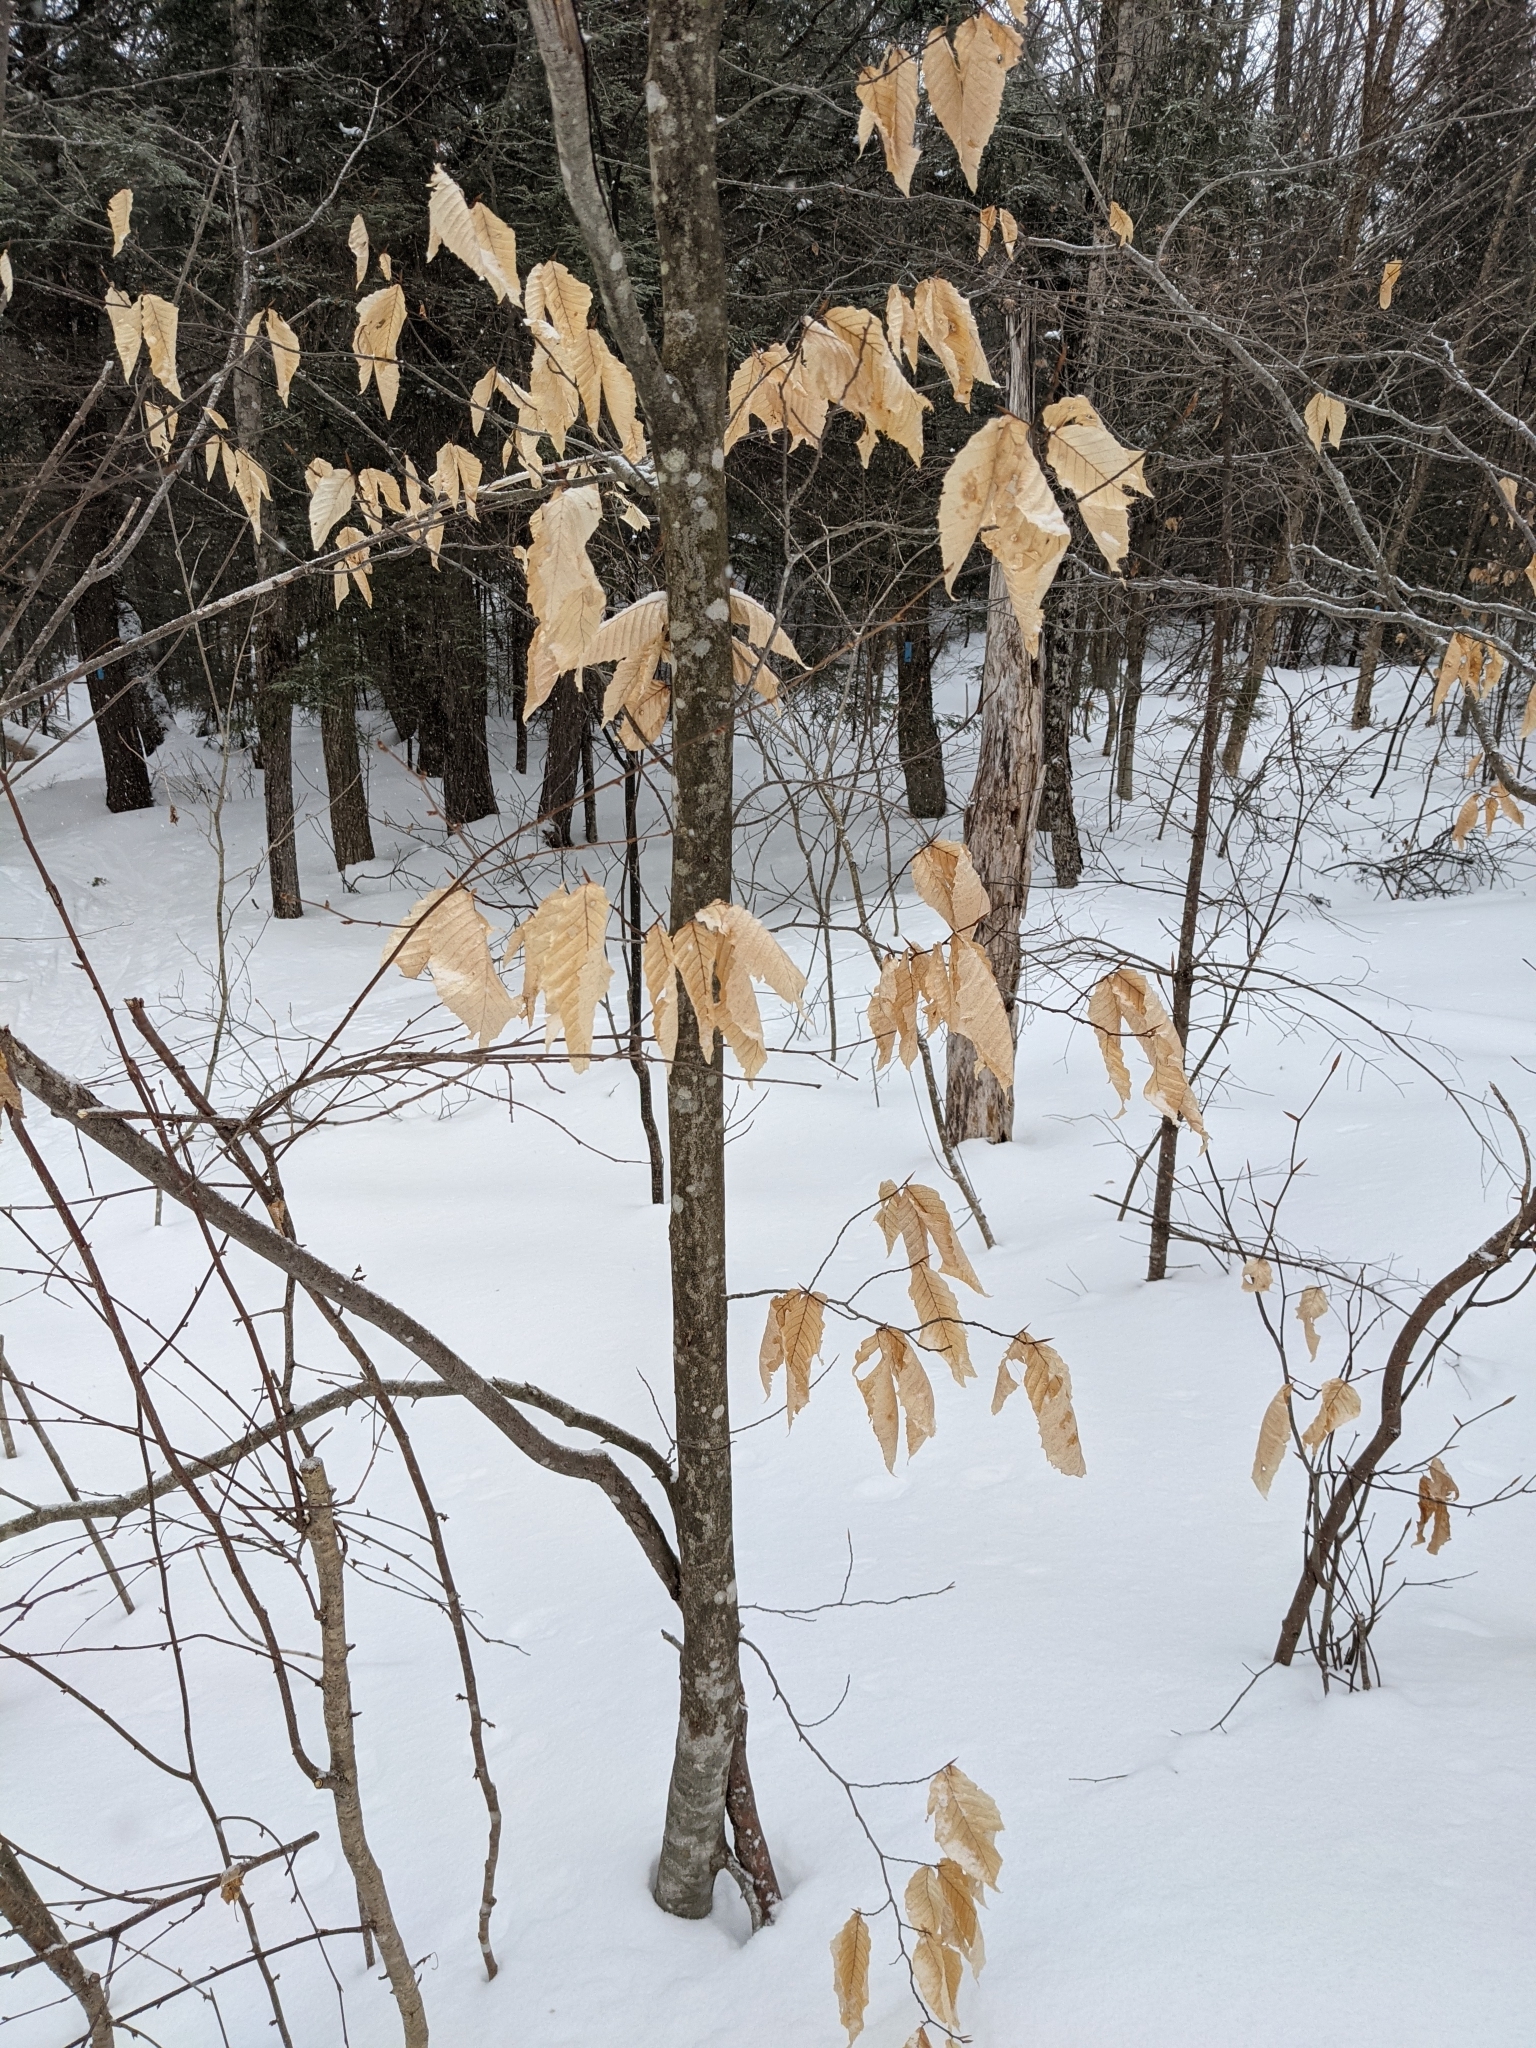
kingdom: Plantae
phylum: Tracheophyta
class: Magnoliopsida
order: Fagales
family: Fagaceae
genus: Fagus
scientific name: Fagus grandifolia
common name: American beech
